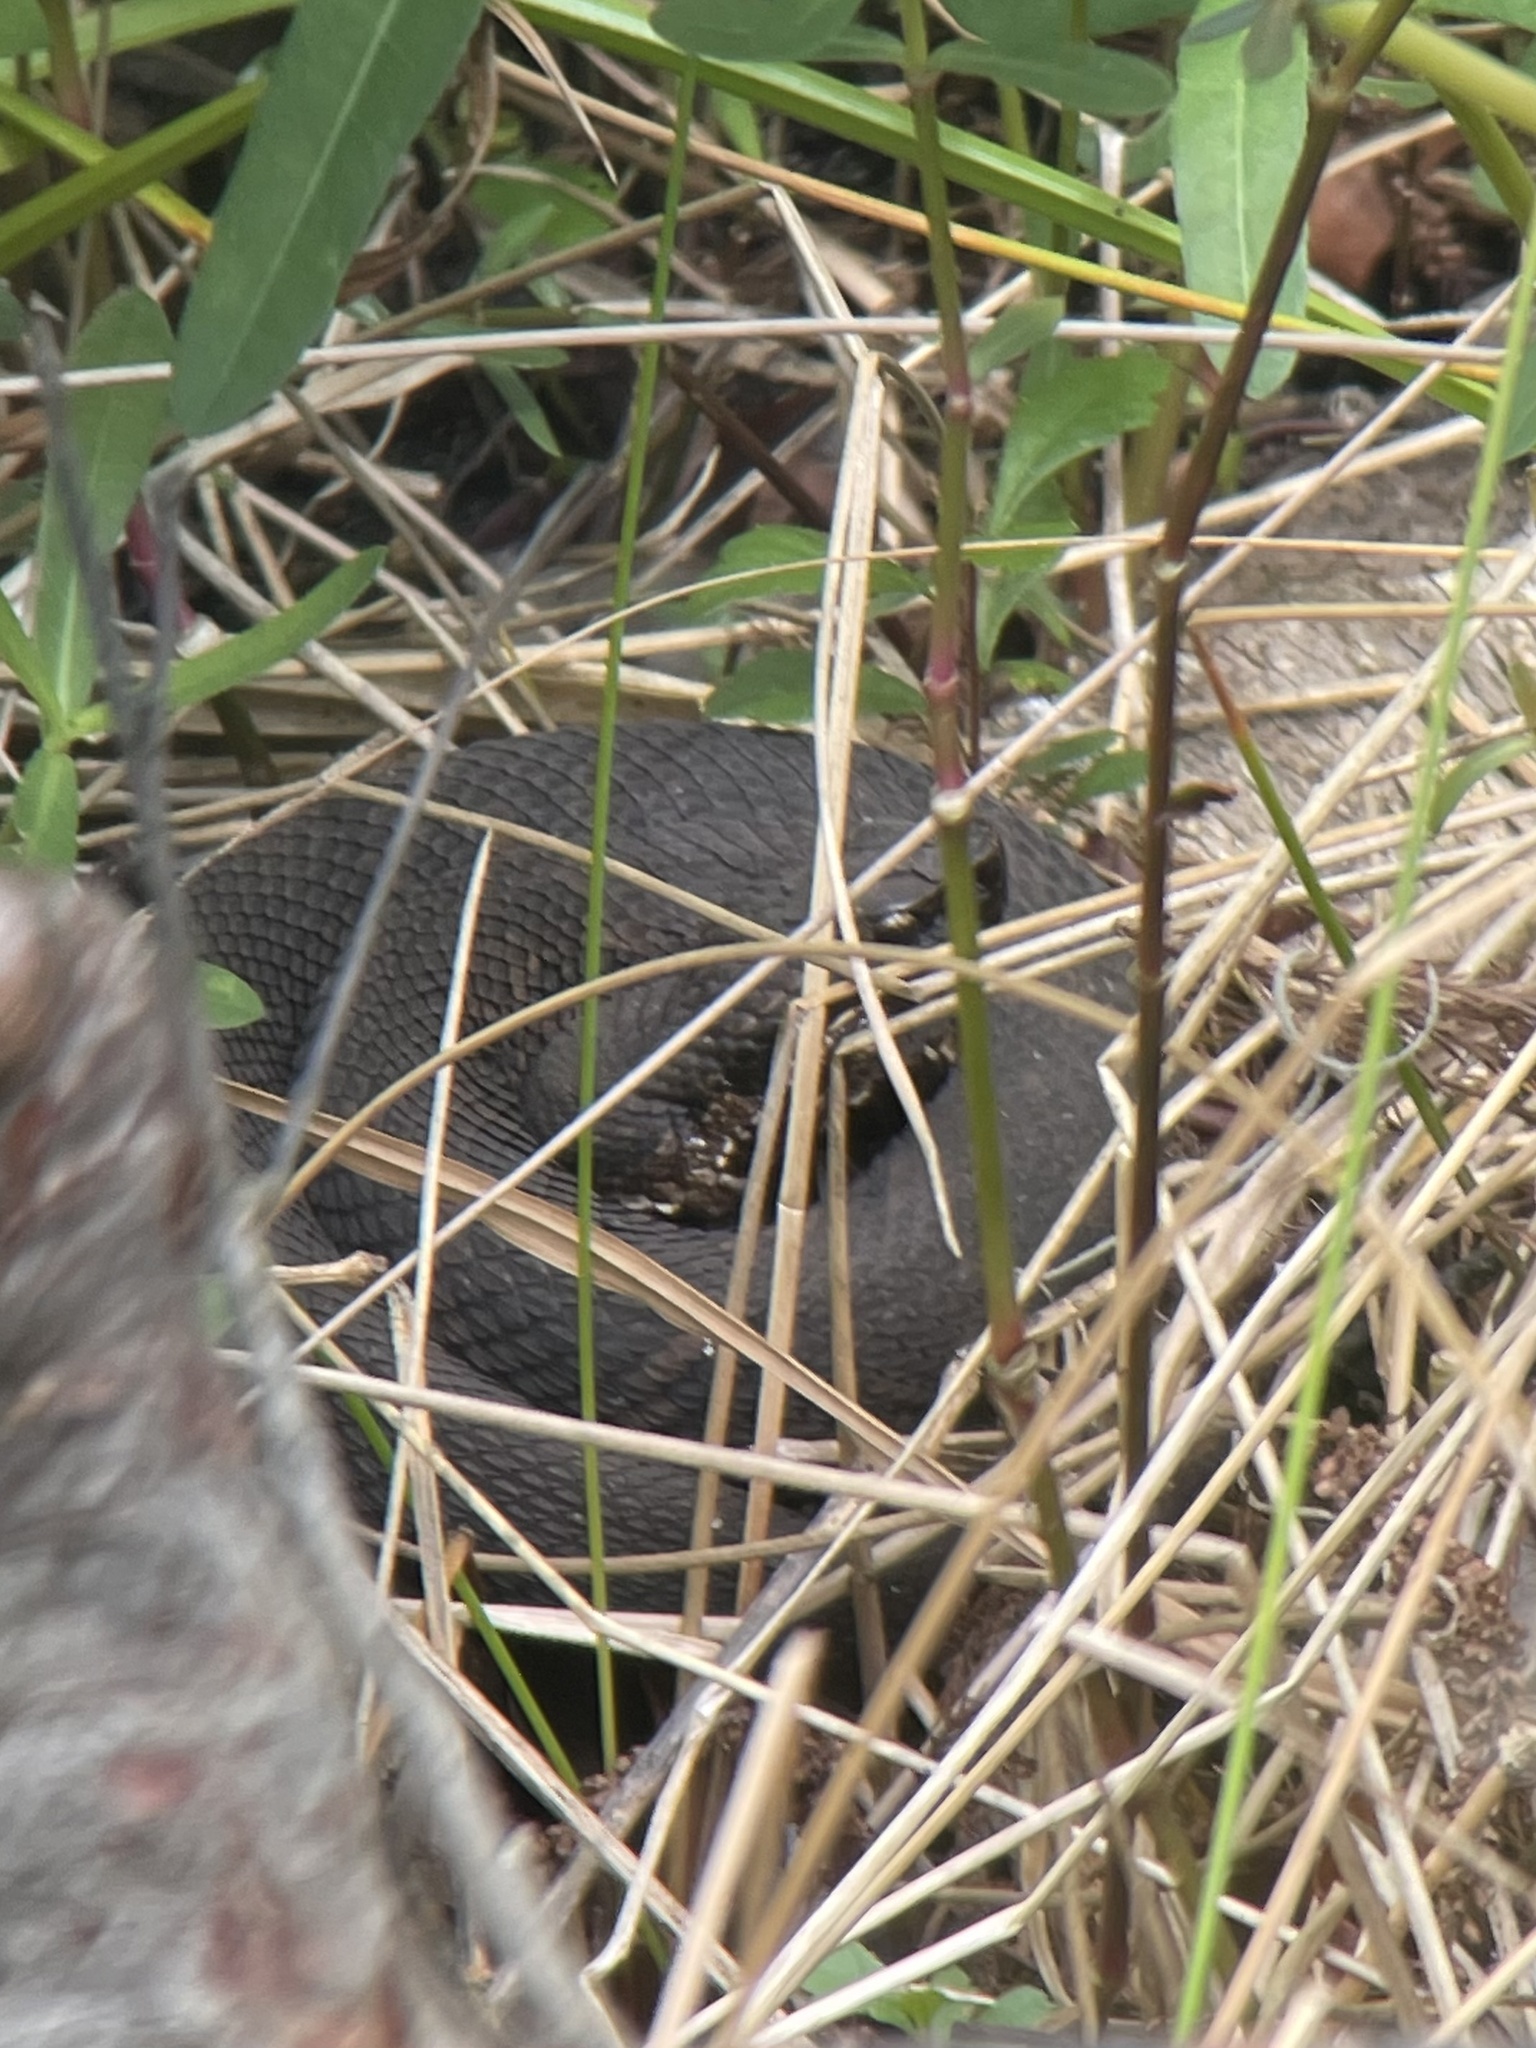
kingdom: Animalia
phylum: Chordata
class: Squamata
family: Viperidae
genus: Agkistrodon
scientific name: Agkistrodon piscivorus
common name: Cottonmouth
